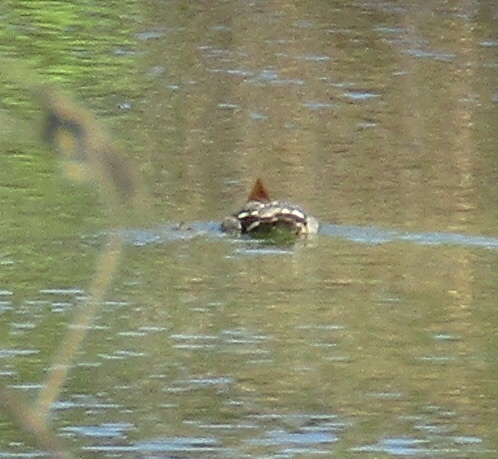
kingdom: Animalia
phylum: Chordata
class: Aves
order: Anseriformes
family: Anatidae
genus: Mergus
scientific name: Mergus serrator
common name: Red-breasted merganser
